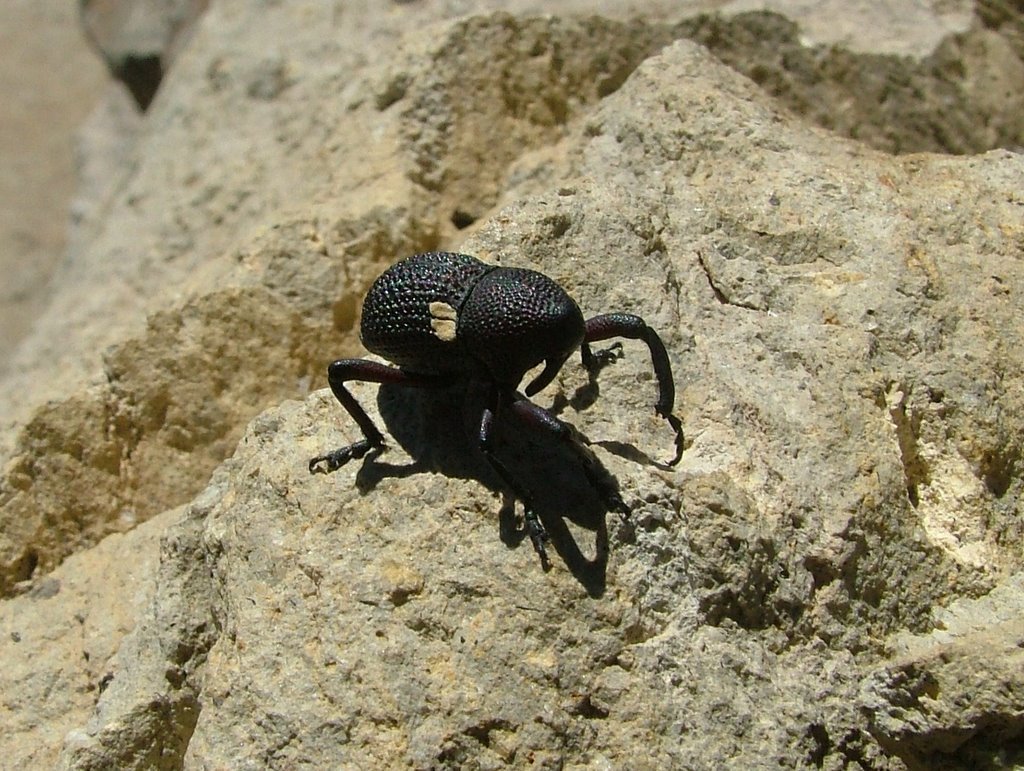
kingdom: Animalia
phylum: Arthropoda
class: Insecta
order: Coleoptera
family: Curculionidae
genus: Rhyephenes
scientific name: Rhyephenes gayi
